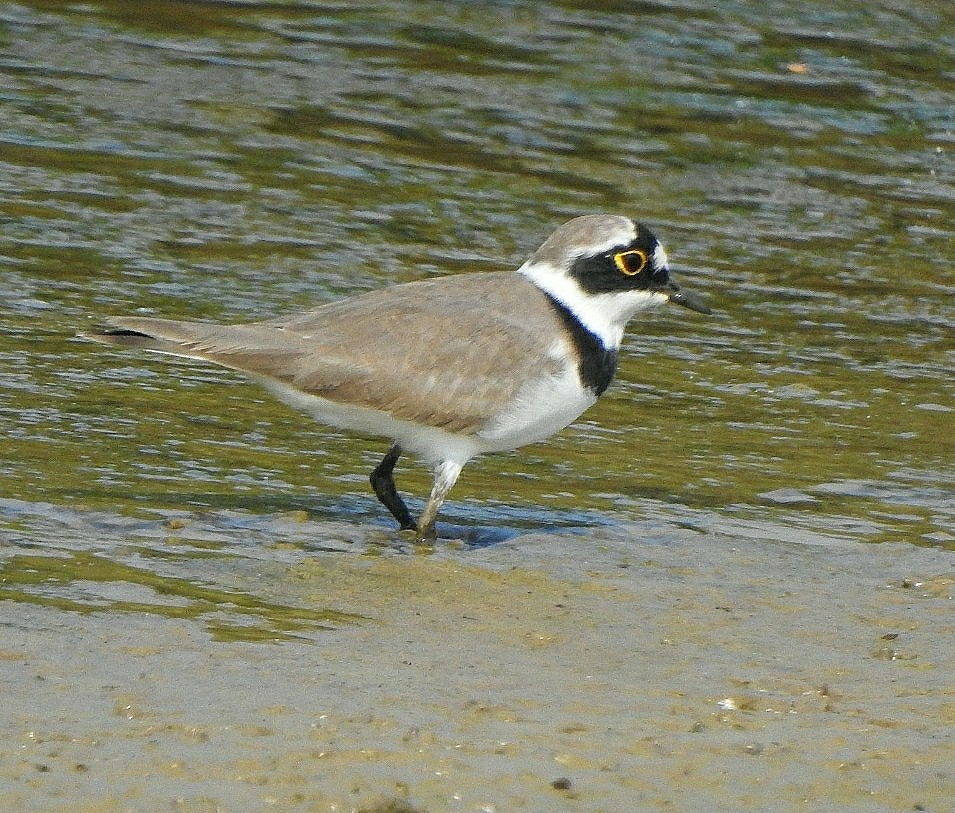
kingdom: Animalia
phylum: Chordata
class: Aves
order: Charadriiformes
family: Charadriidae
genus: Charadrius
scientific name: Charadrius dubius
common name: Little ringed plover
